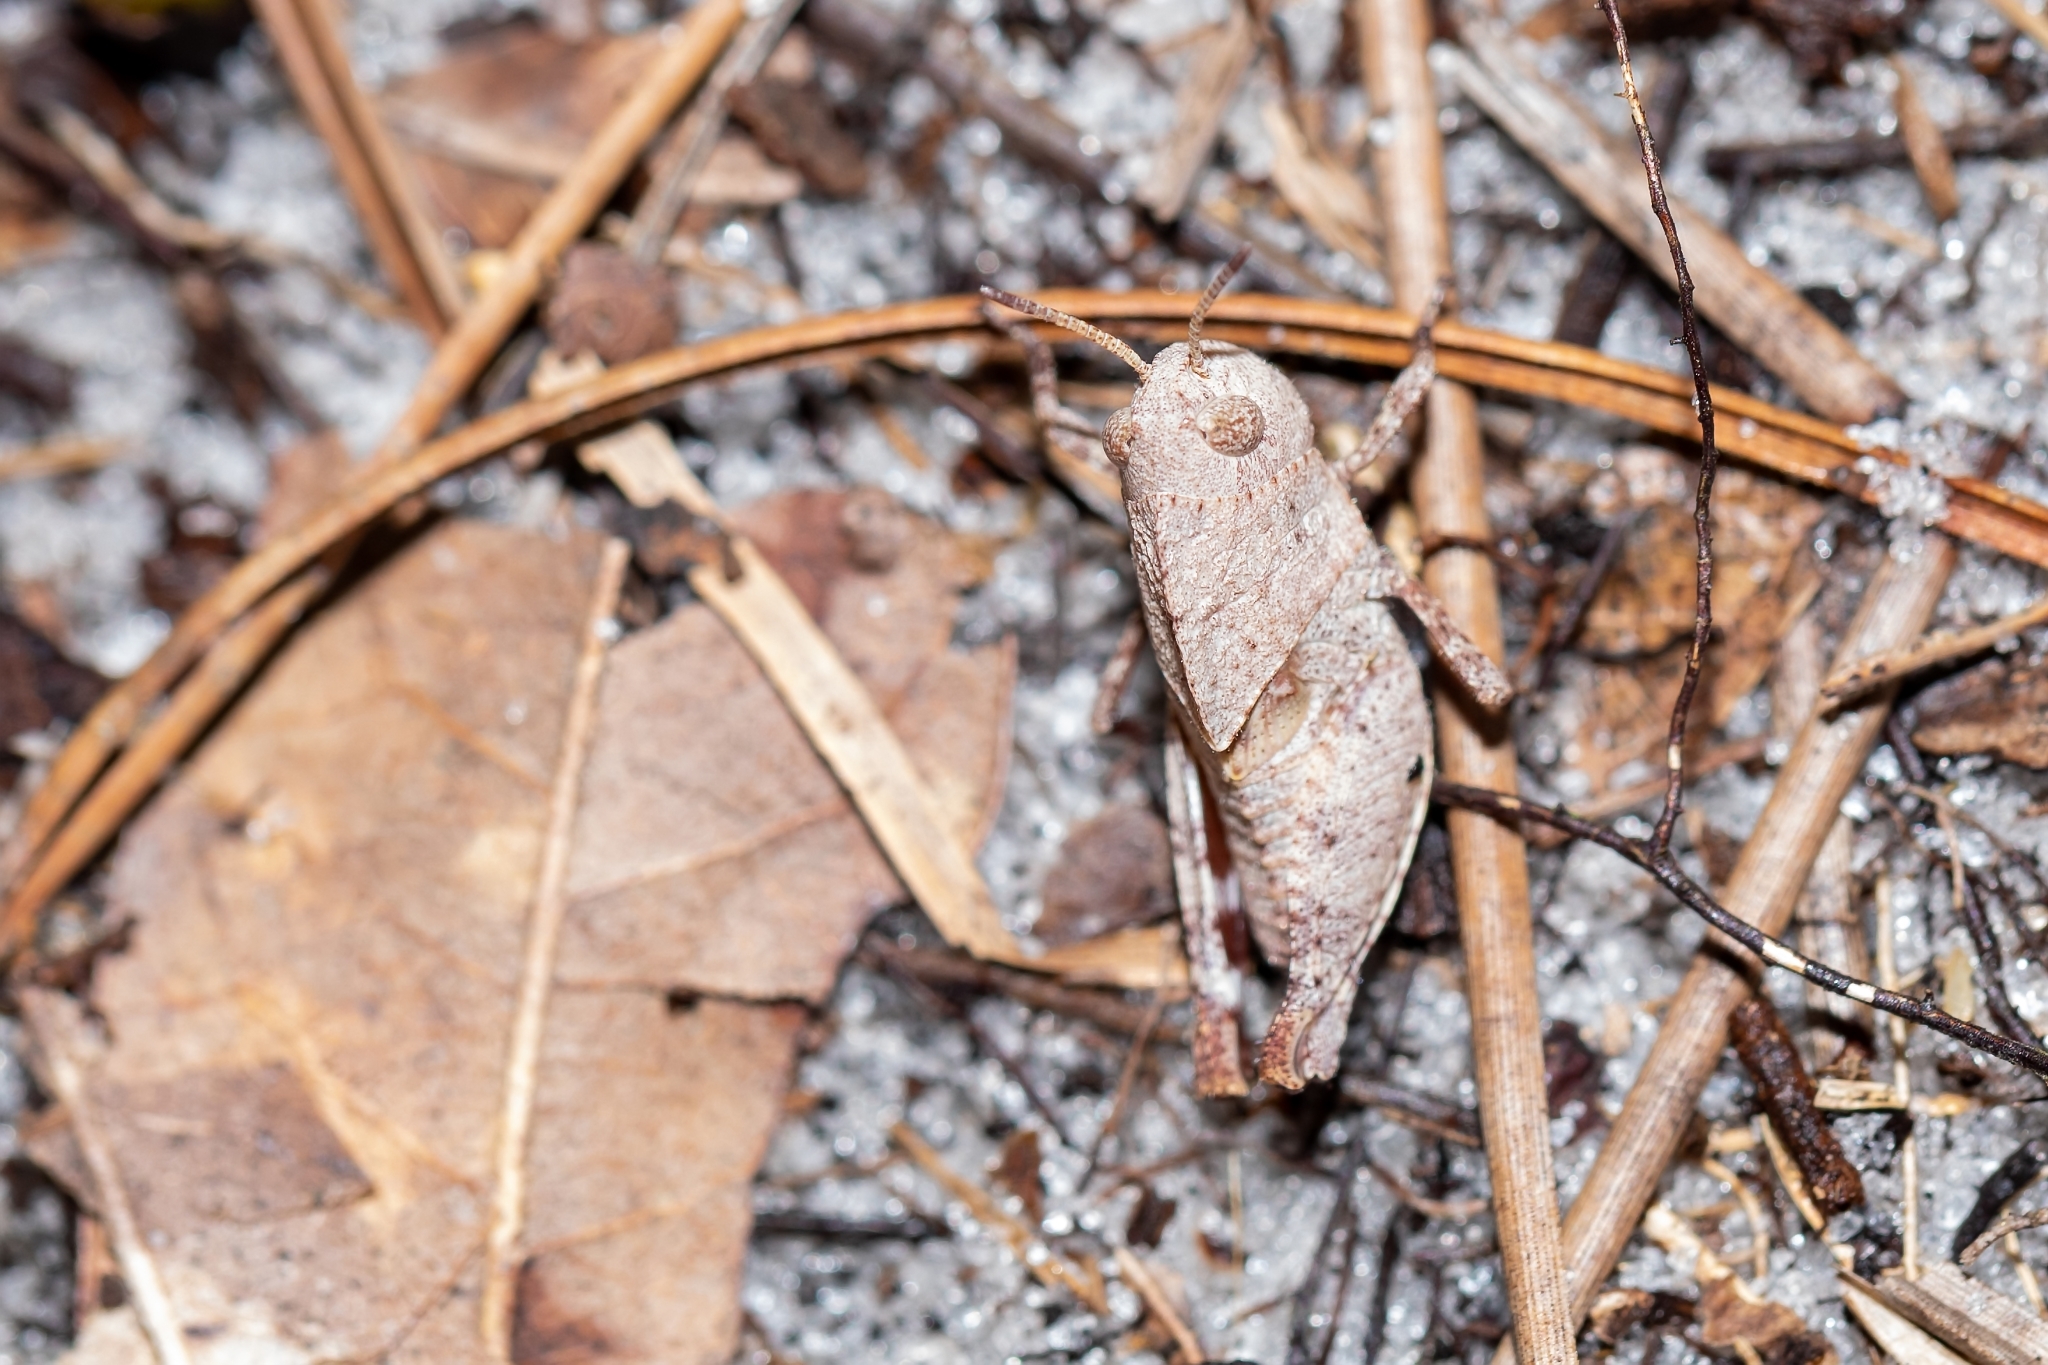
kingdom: Animalia
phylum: Arthropoda
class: Insecta
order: Orthoptera
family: Acrididae
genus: Arphia
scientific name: Arphia granulata
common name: Southern yellow-winged grasshopper
